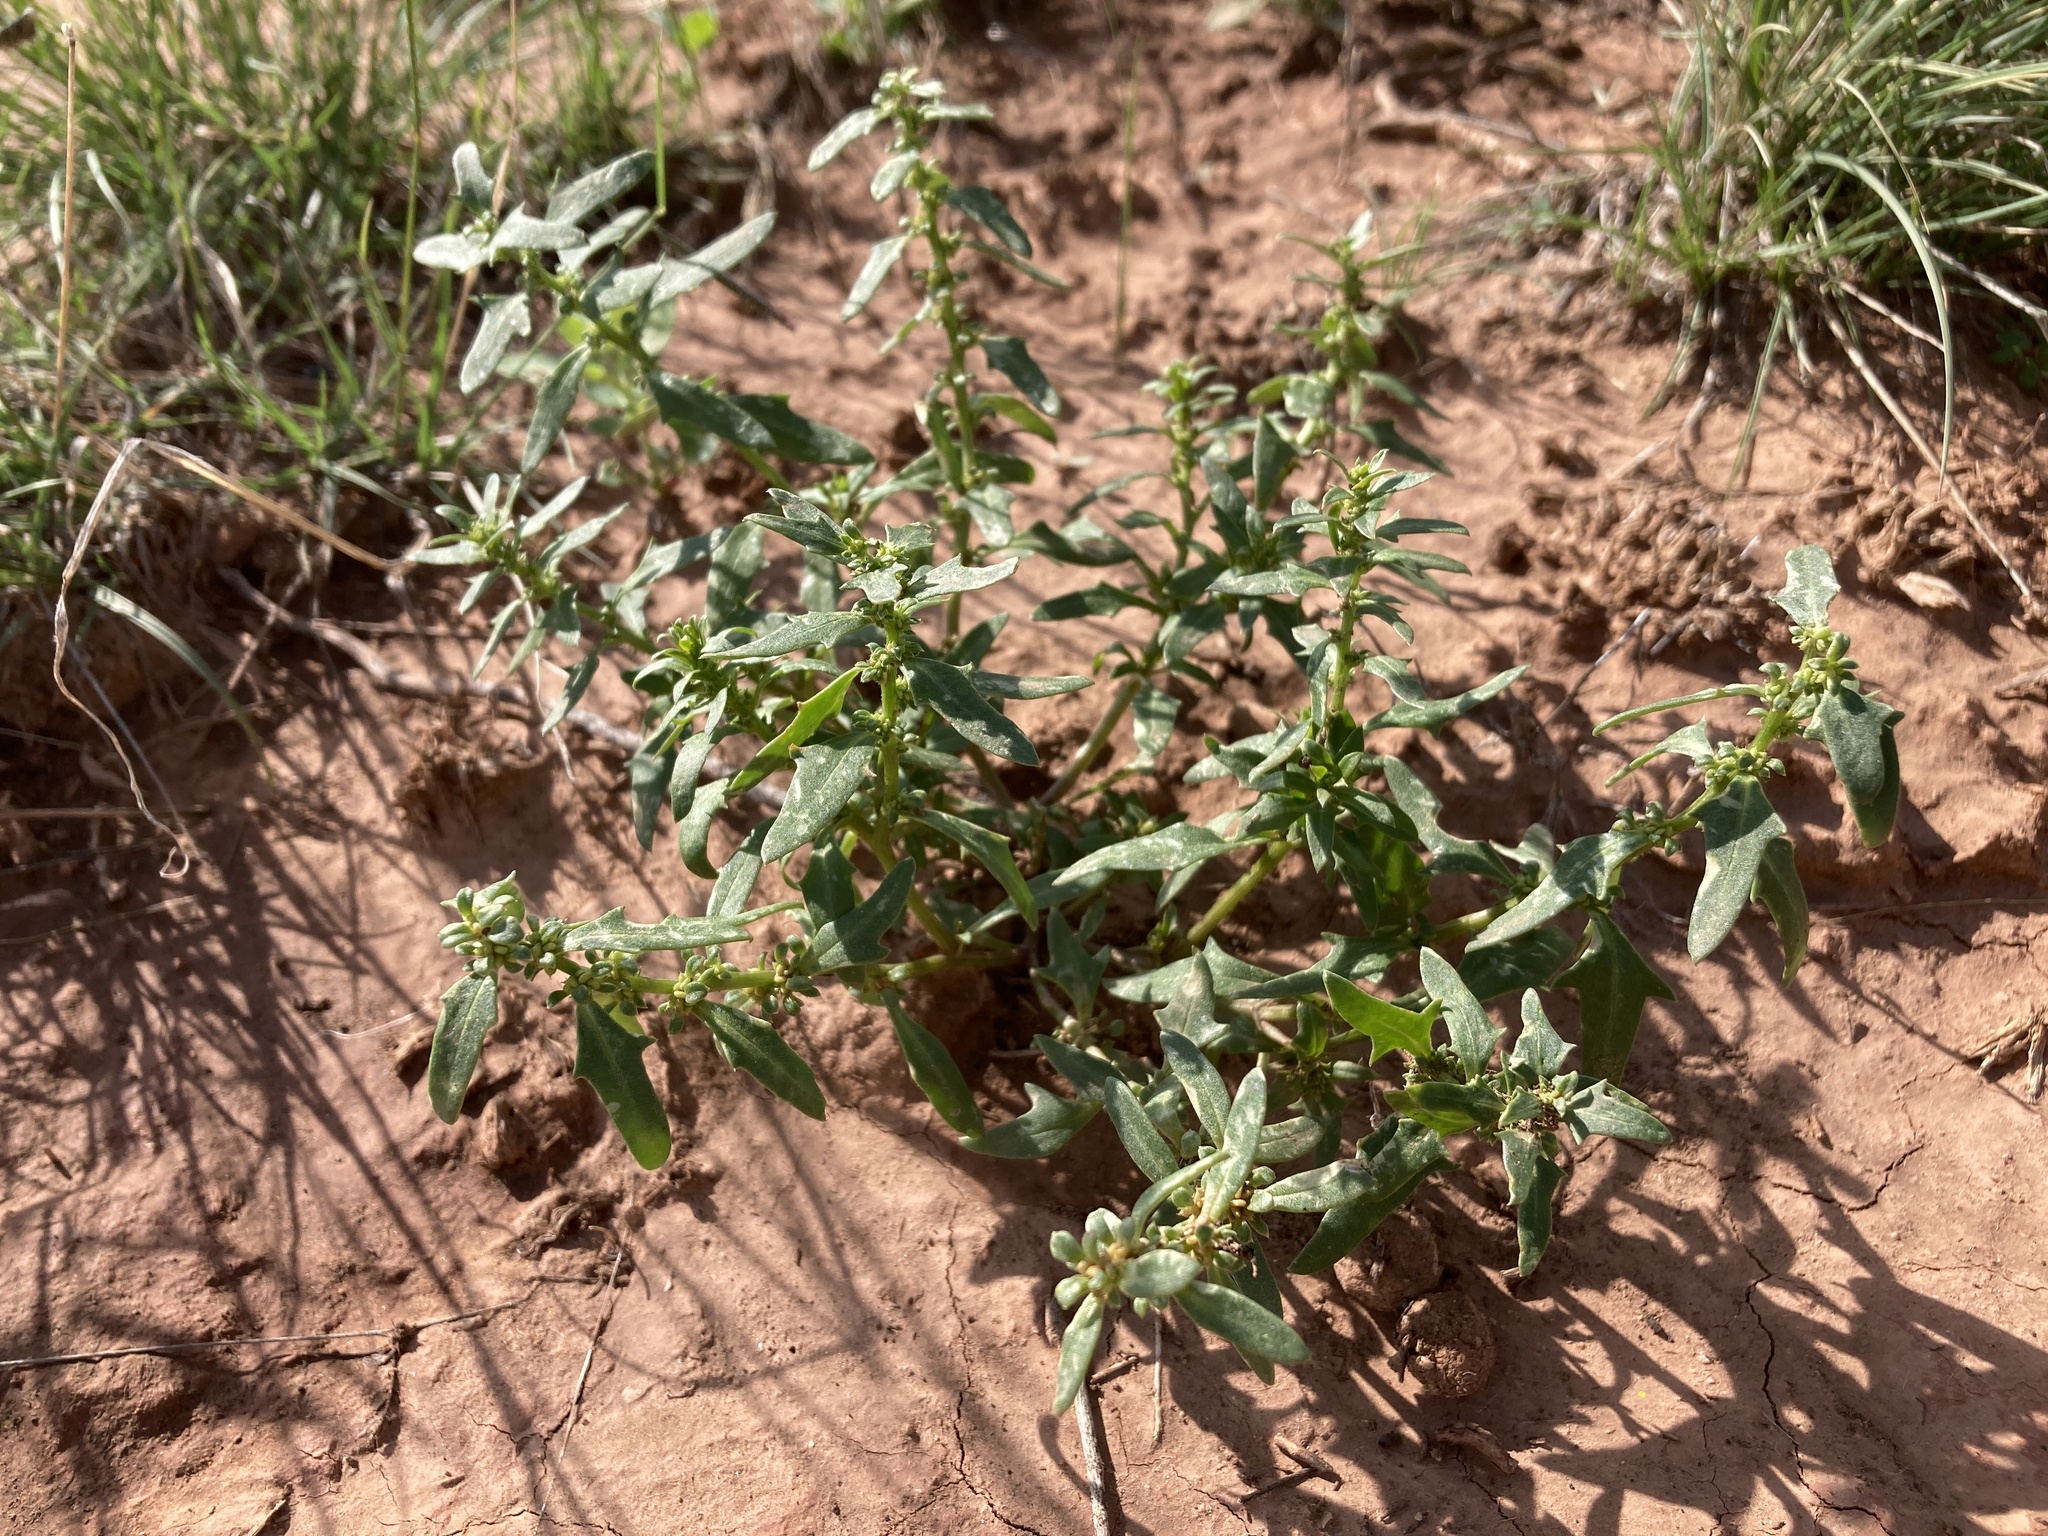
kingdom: Plantae
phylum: Tracheophyta
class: Magnoliopsida
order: Caryophyllales
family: Amaranthaceae
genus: Blitum
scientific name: Blitum nuttallianum
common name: Poverty-weed
